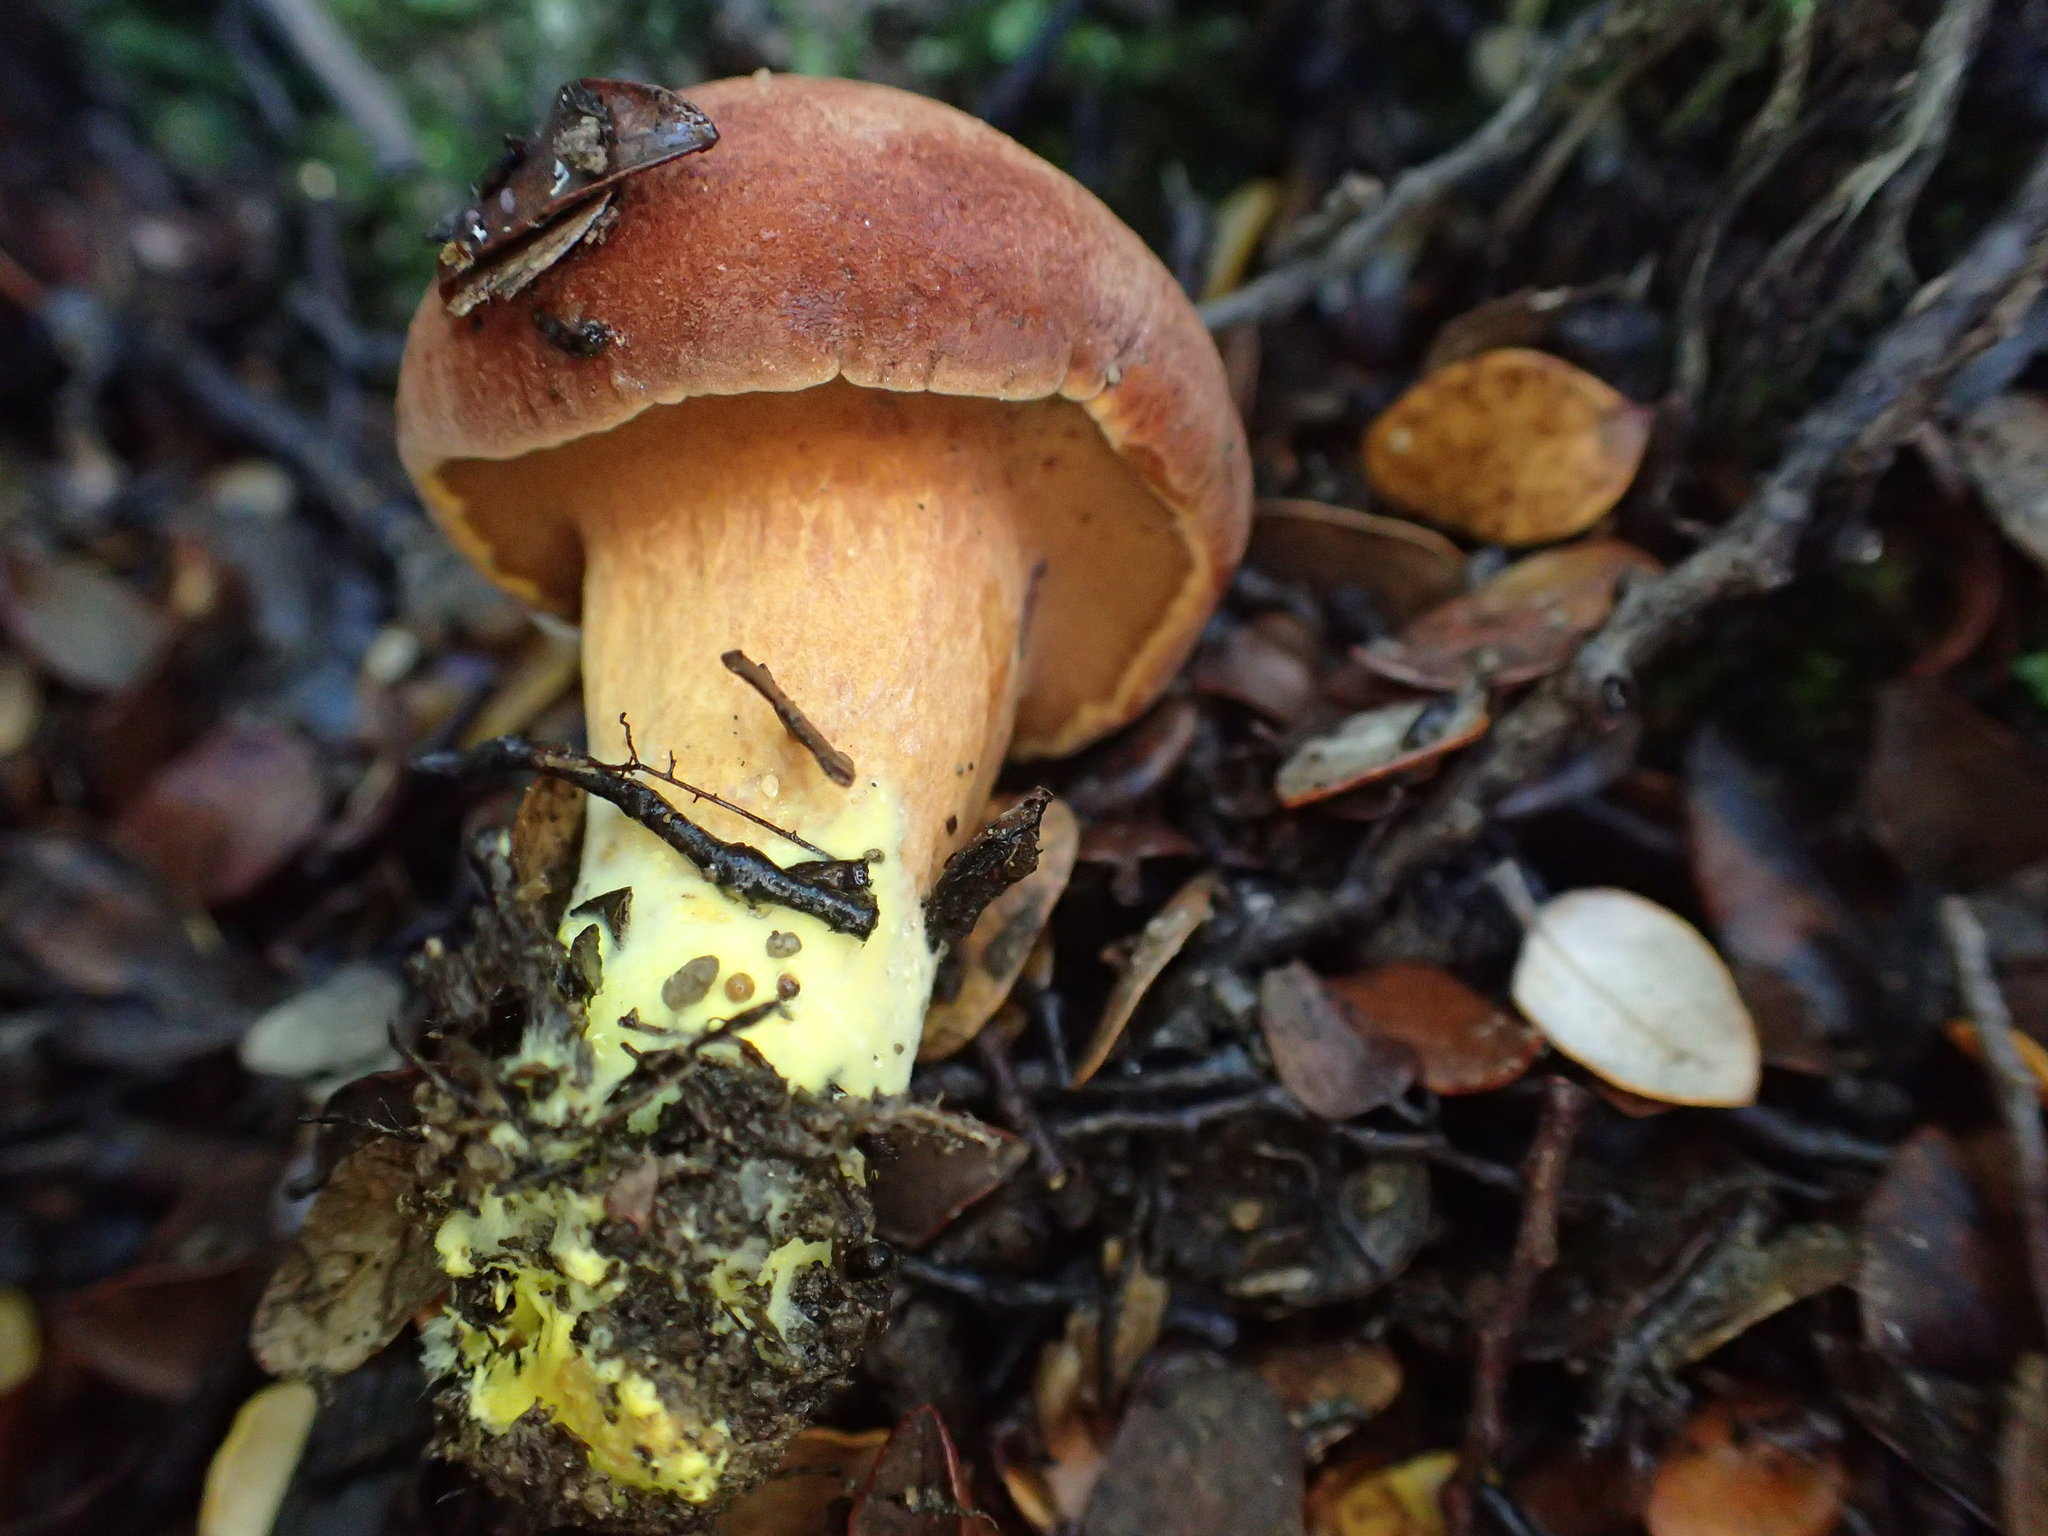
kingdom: Fungi
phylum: Basidiomycota
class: Agaricomycetes
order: Boletales
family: Boletaceae
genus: Chalciporus
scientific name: Chalciporus piperatus
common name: Peppery bolete
